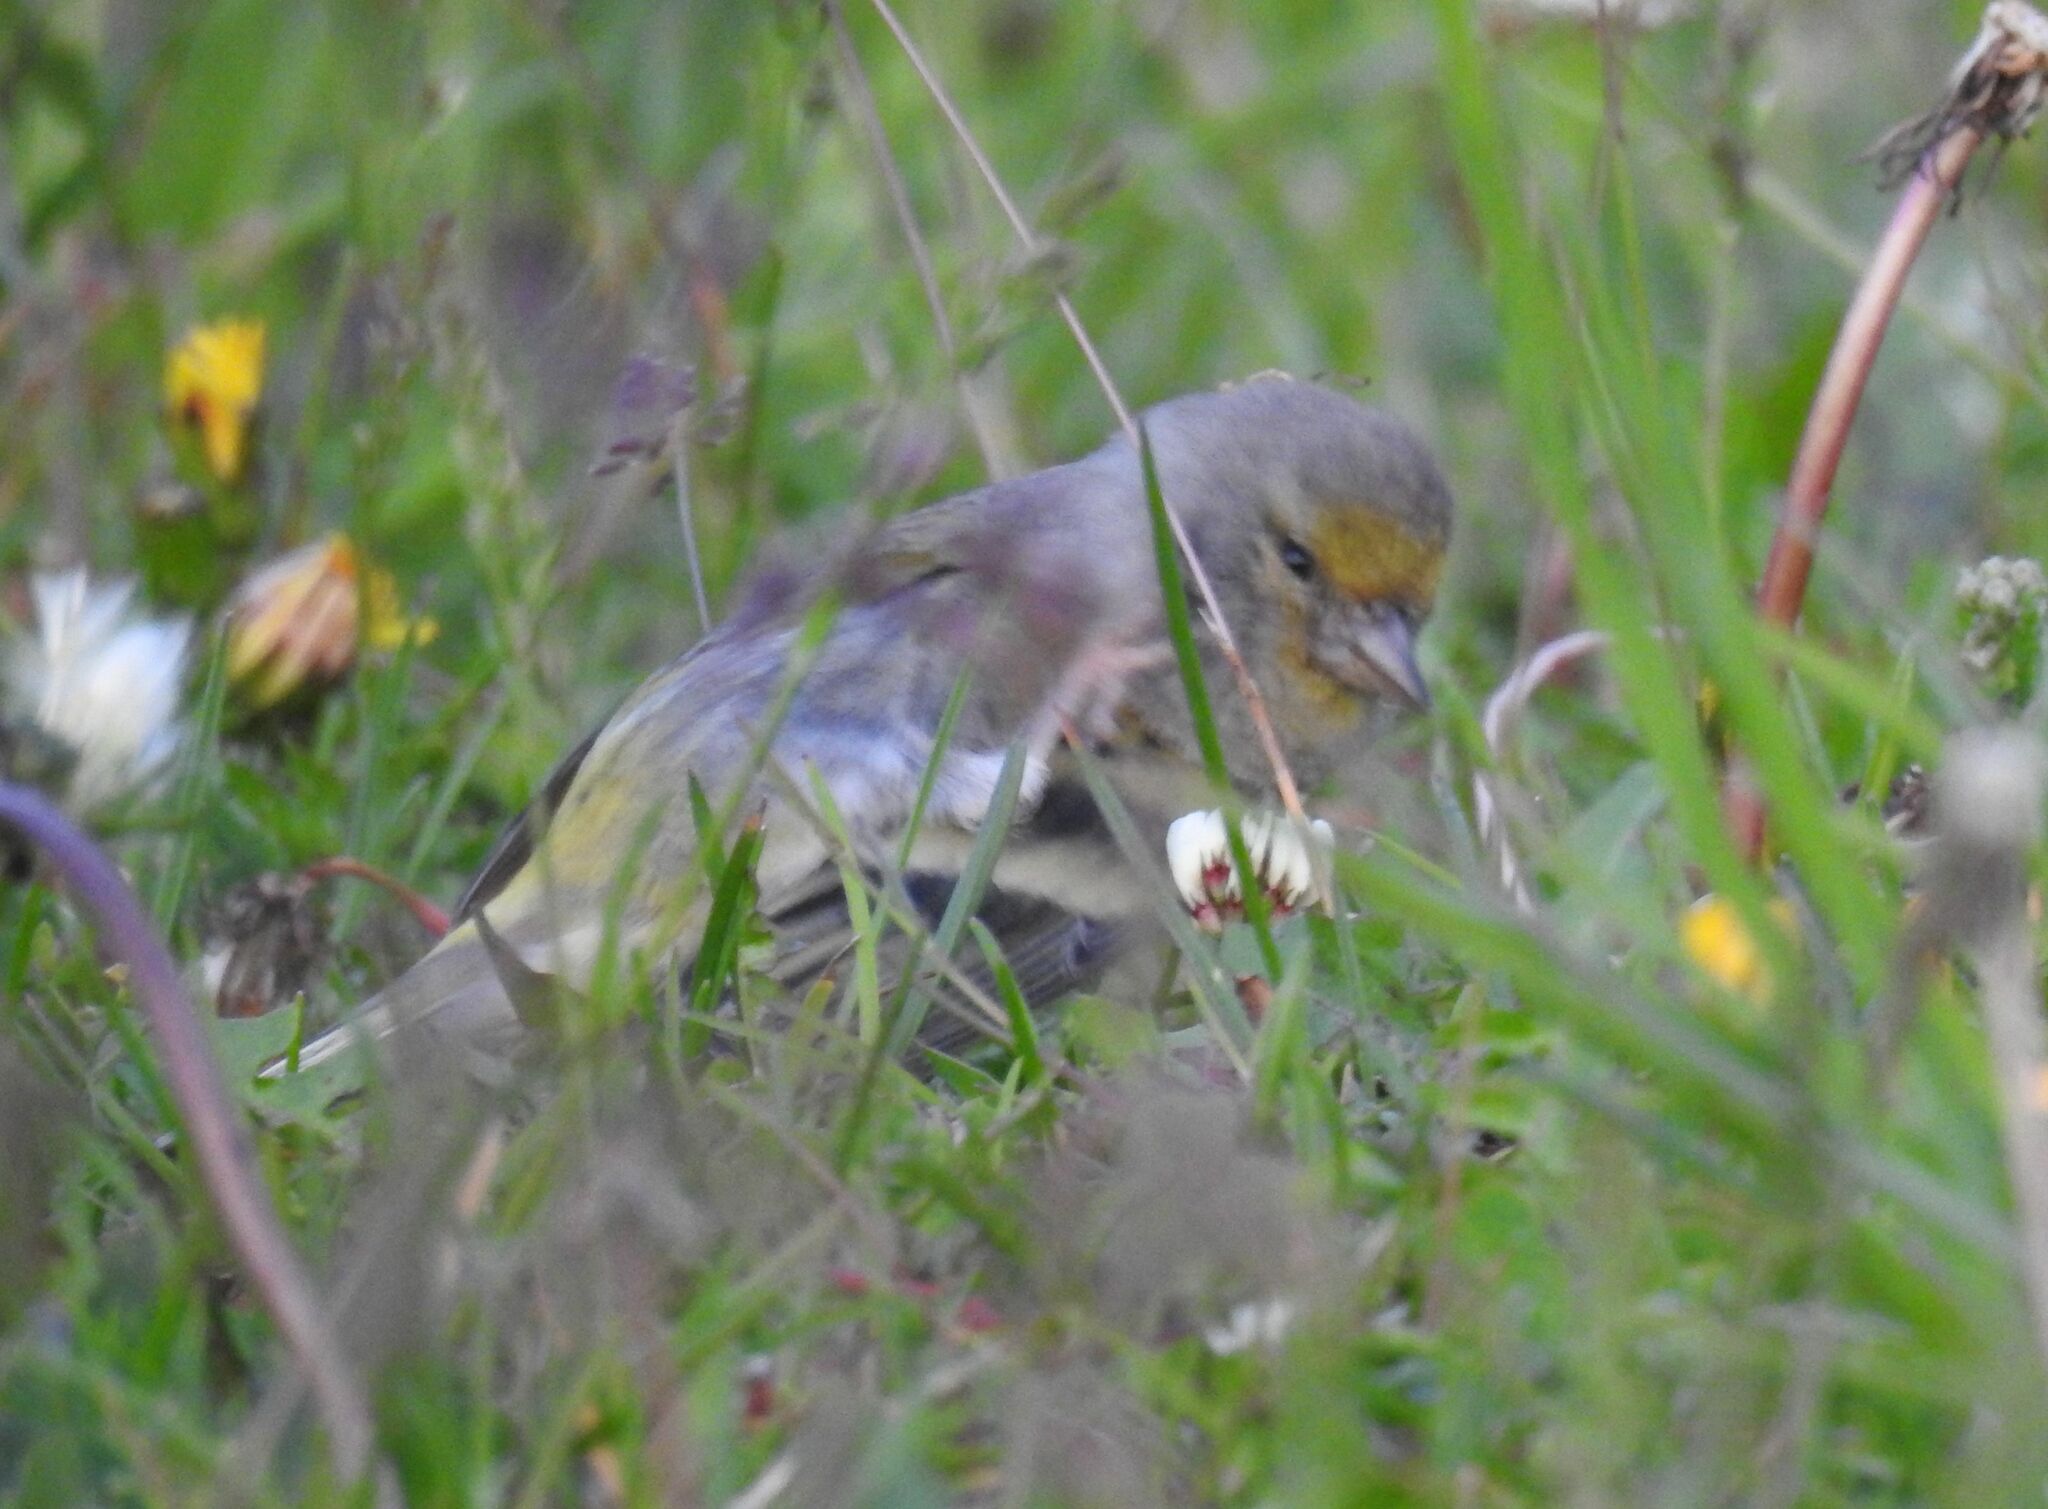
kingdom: Animalia
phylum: Chordata
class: Aves
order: Passeriformes
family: Fringillidae
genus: Carduelis
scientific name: Carduelis citrinella
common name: Citril finch
